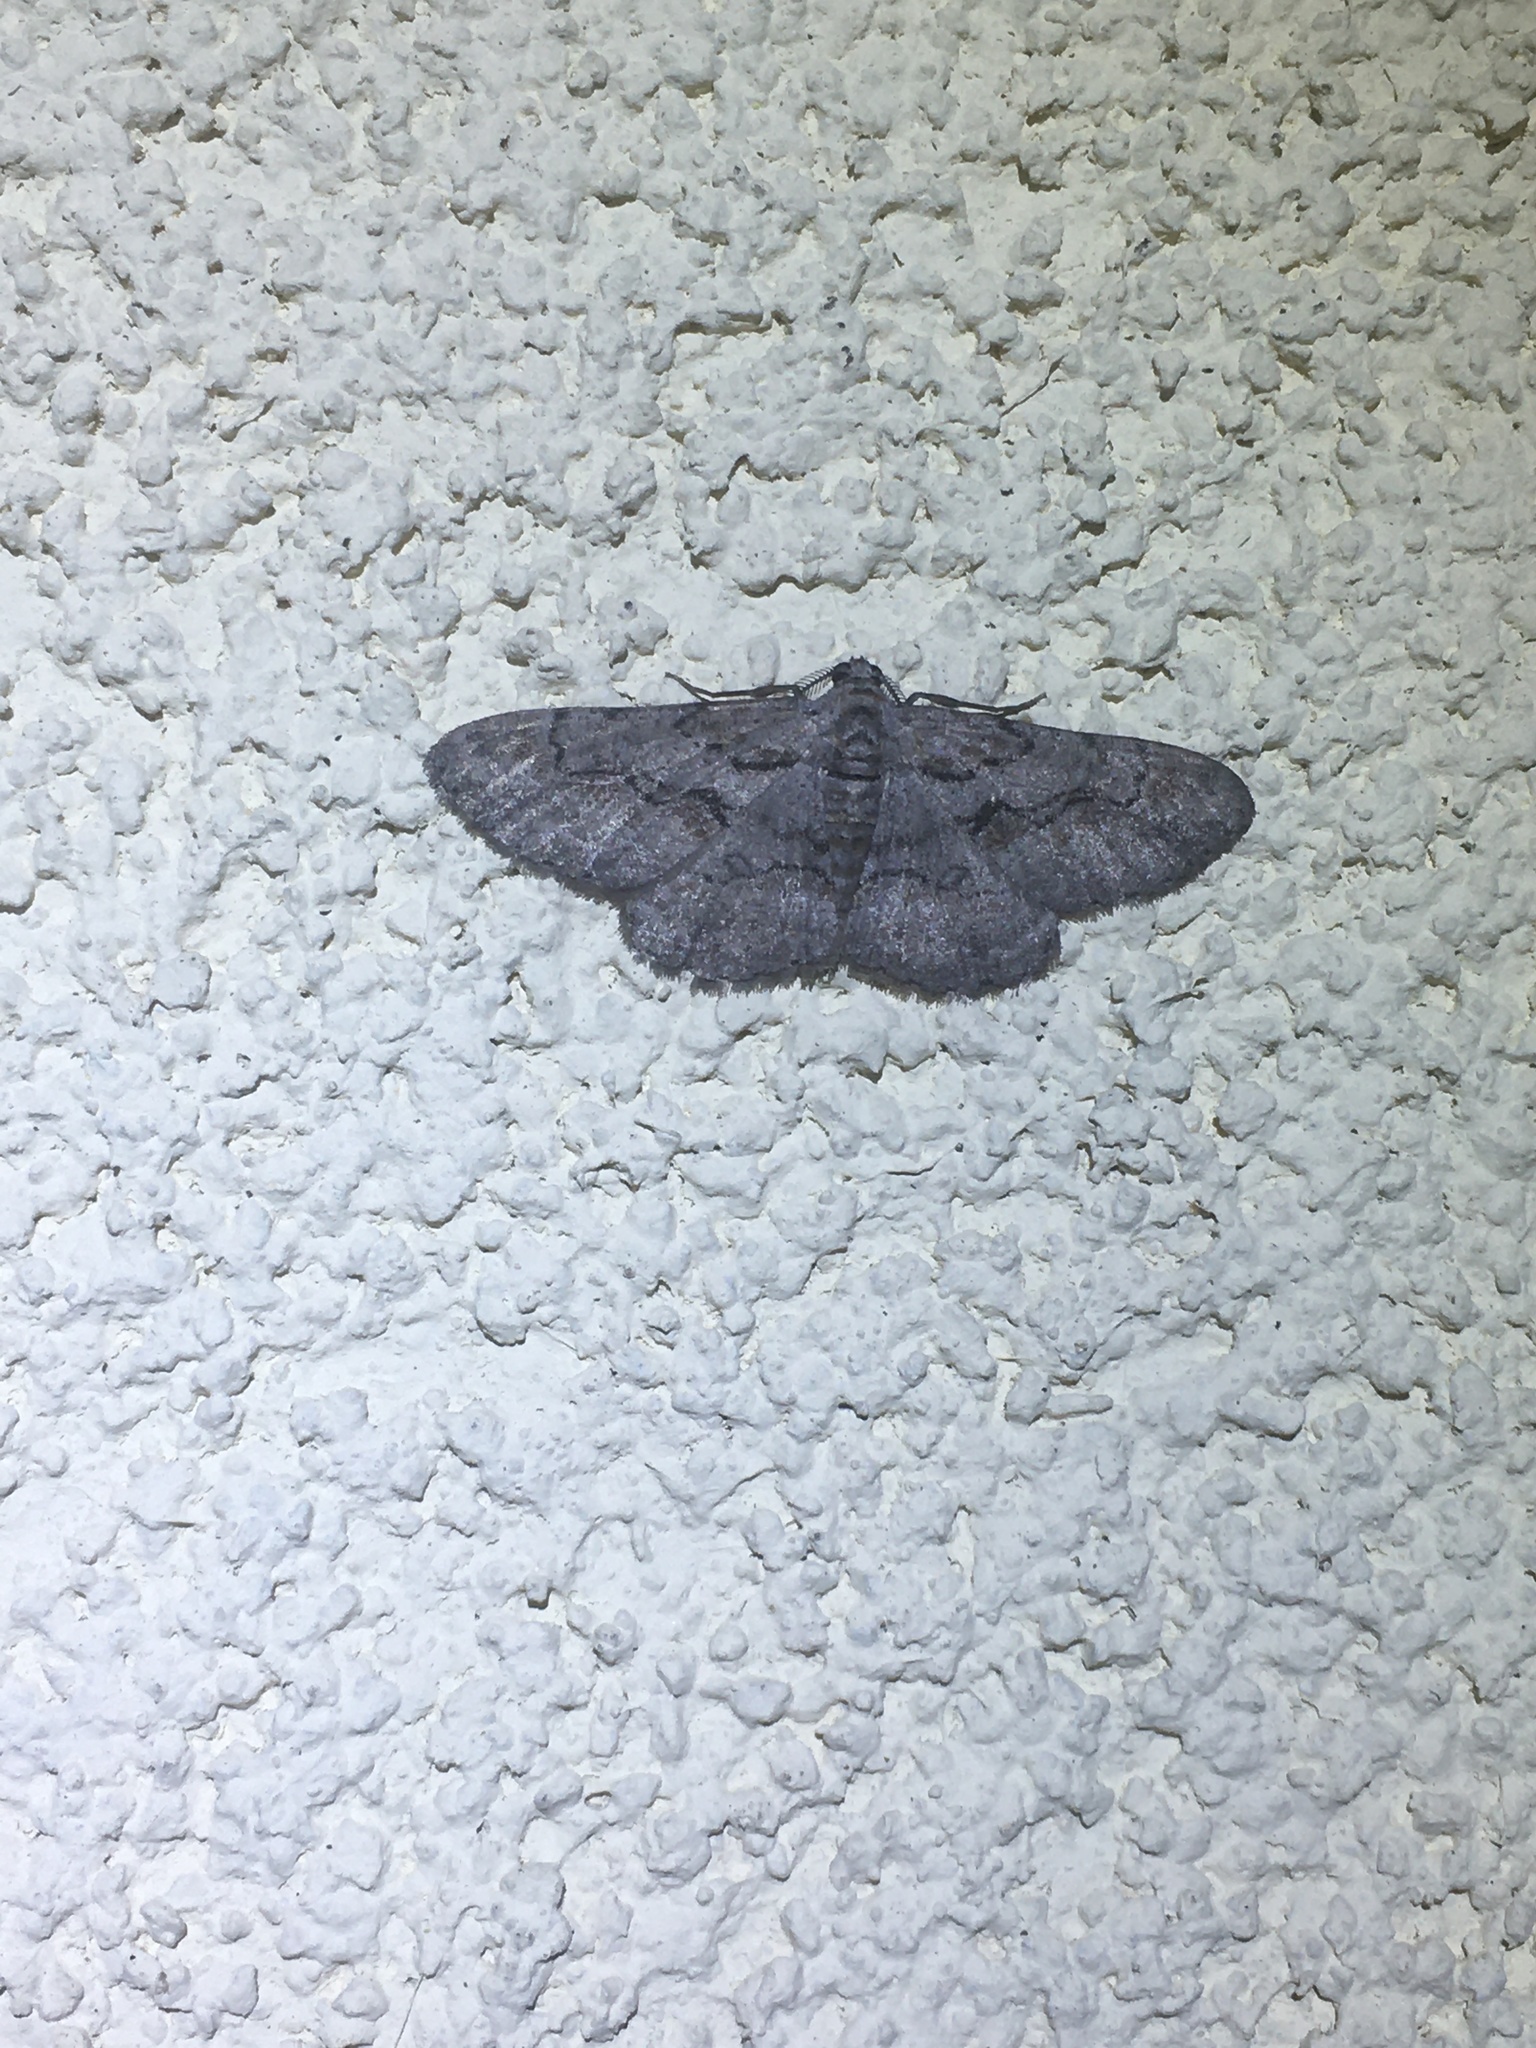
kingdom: Animalia
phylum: Arthropoda
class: Insecta
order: Lepidoptera
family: Geometridae
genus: Iridopsis
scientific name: Iridopsis vellivolata
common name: Large purplish gray
